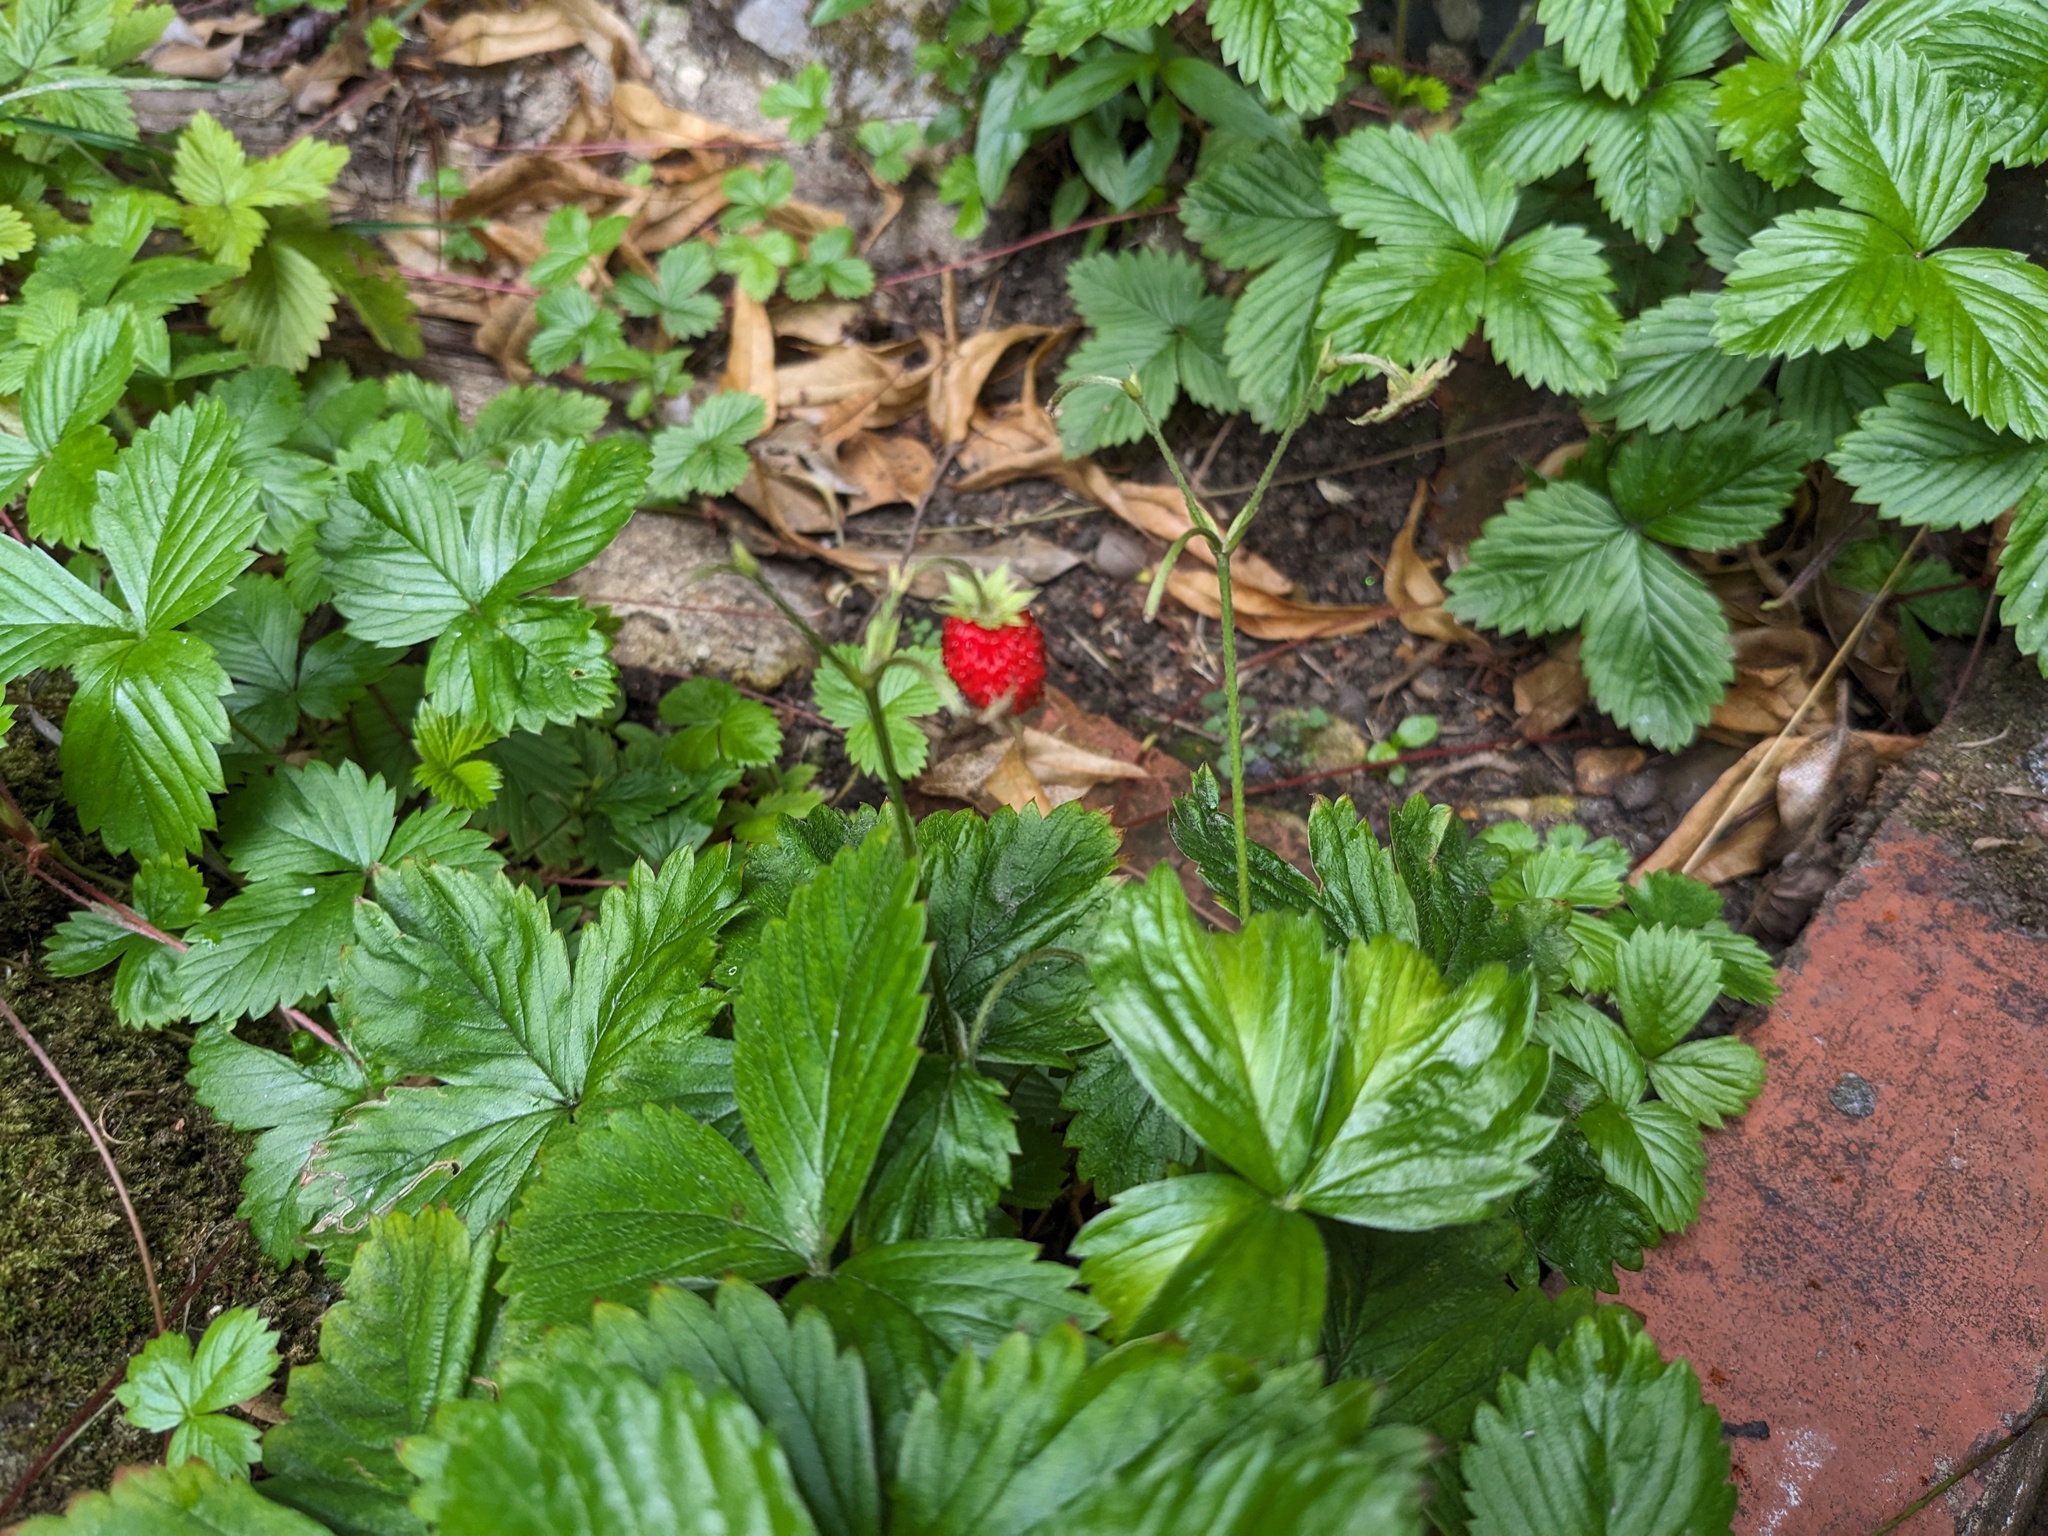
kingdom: Plantae
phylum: Tracheophyta
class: Magnoliopsida
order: Rosales
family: Rosaceae
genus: Fragaria
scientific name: Fragaria vesca
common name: Wild strawberry
